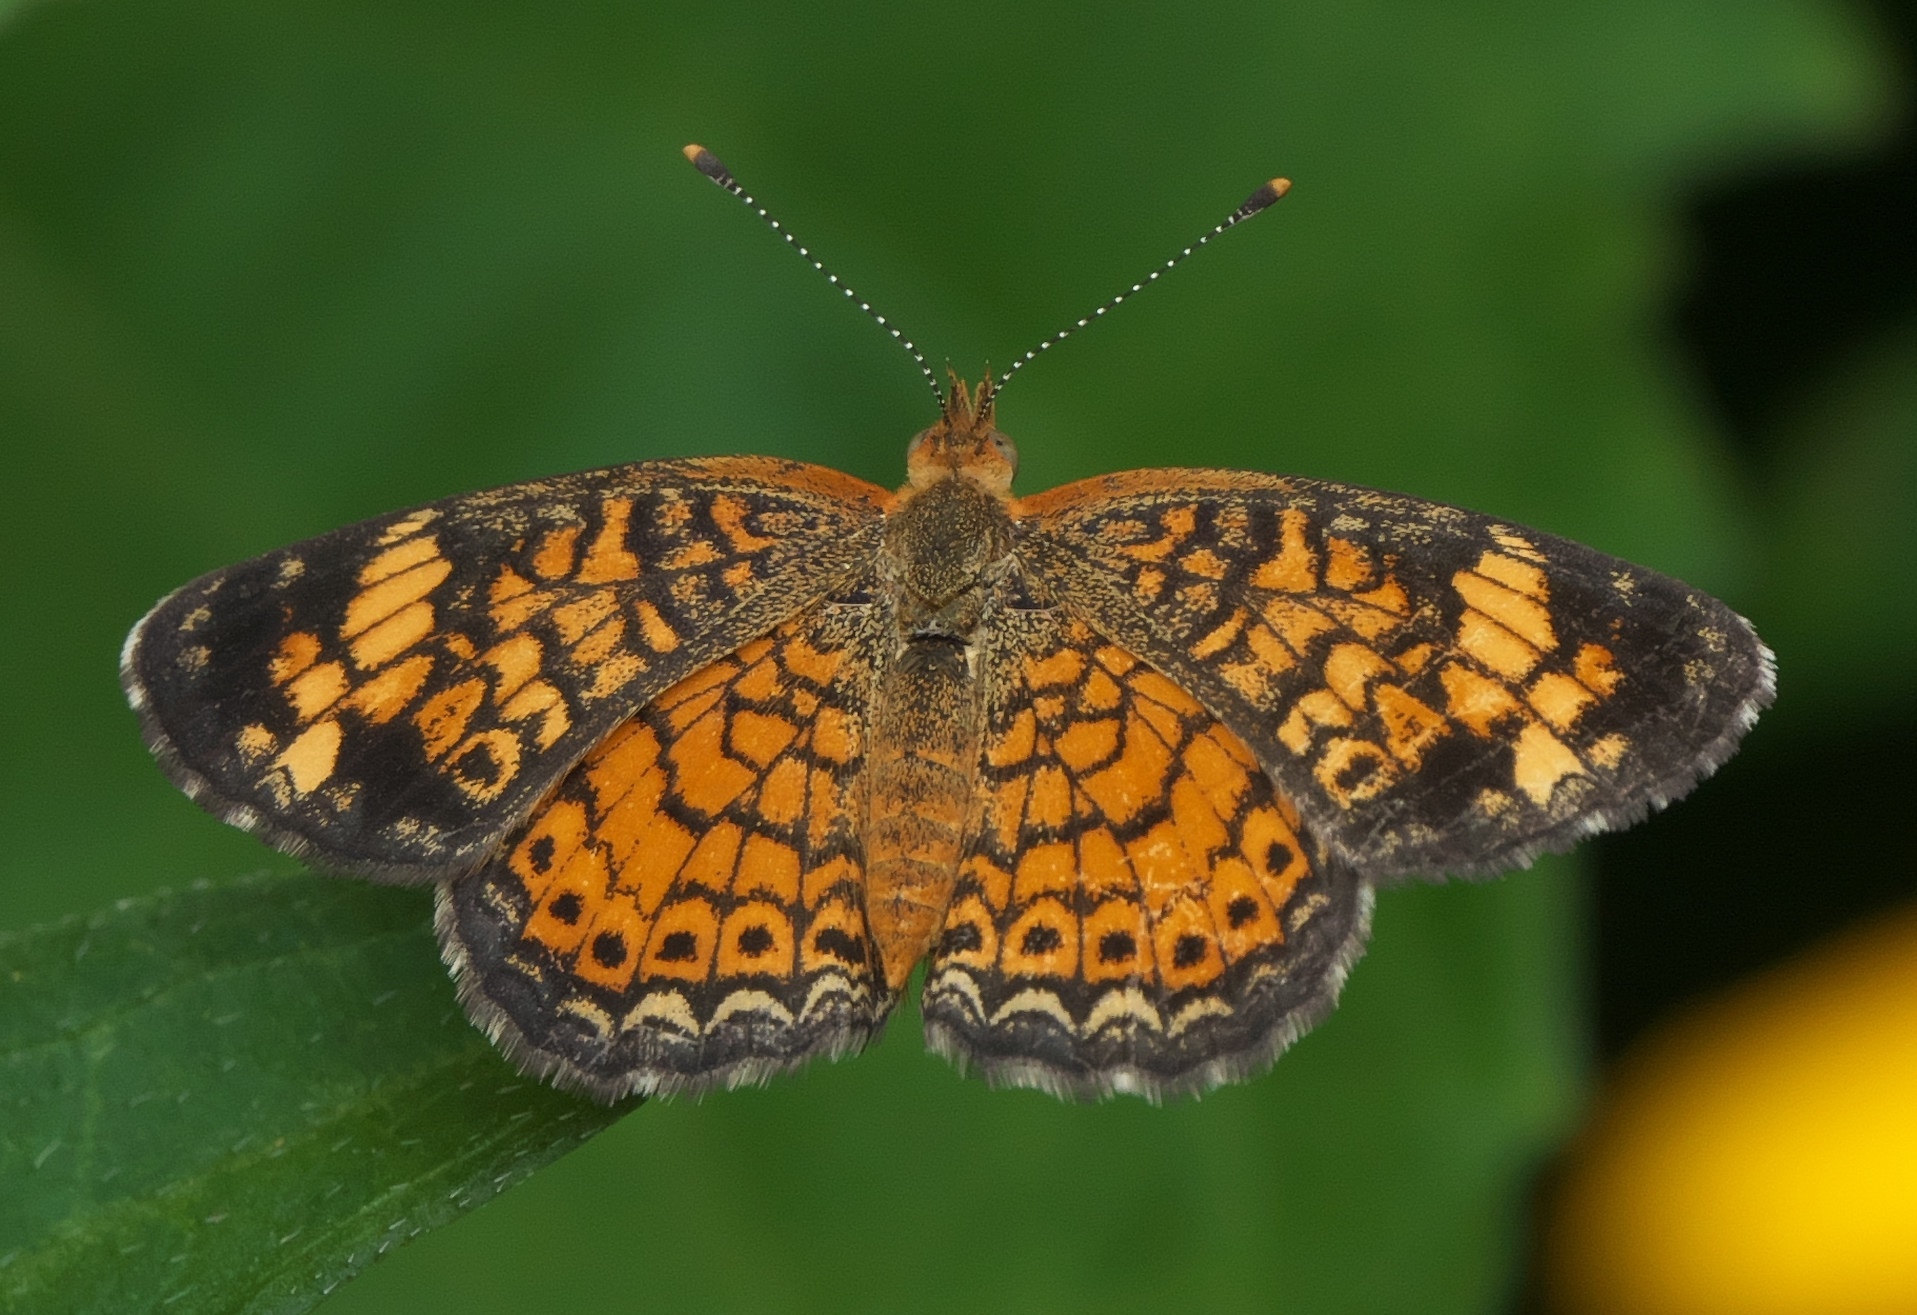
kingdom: Animalia
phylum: Arthropoda
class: Insecta
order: Lepidoptera
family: Nymphalidae
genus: Phyciodes
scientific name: Phyciodes tharos
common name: Pearl crescent
